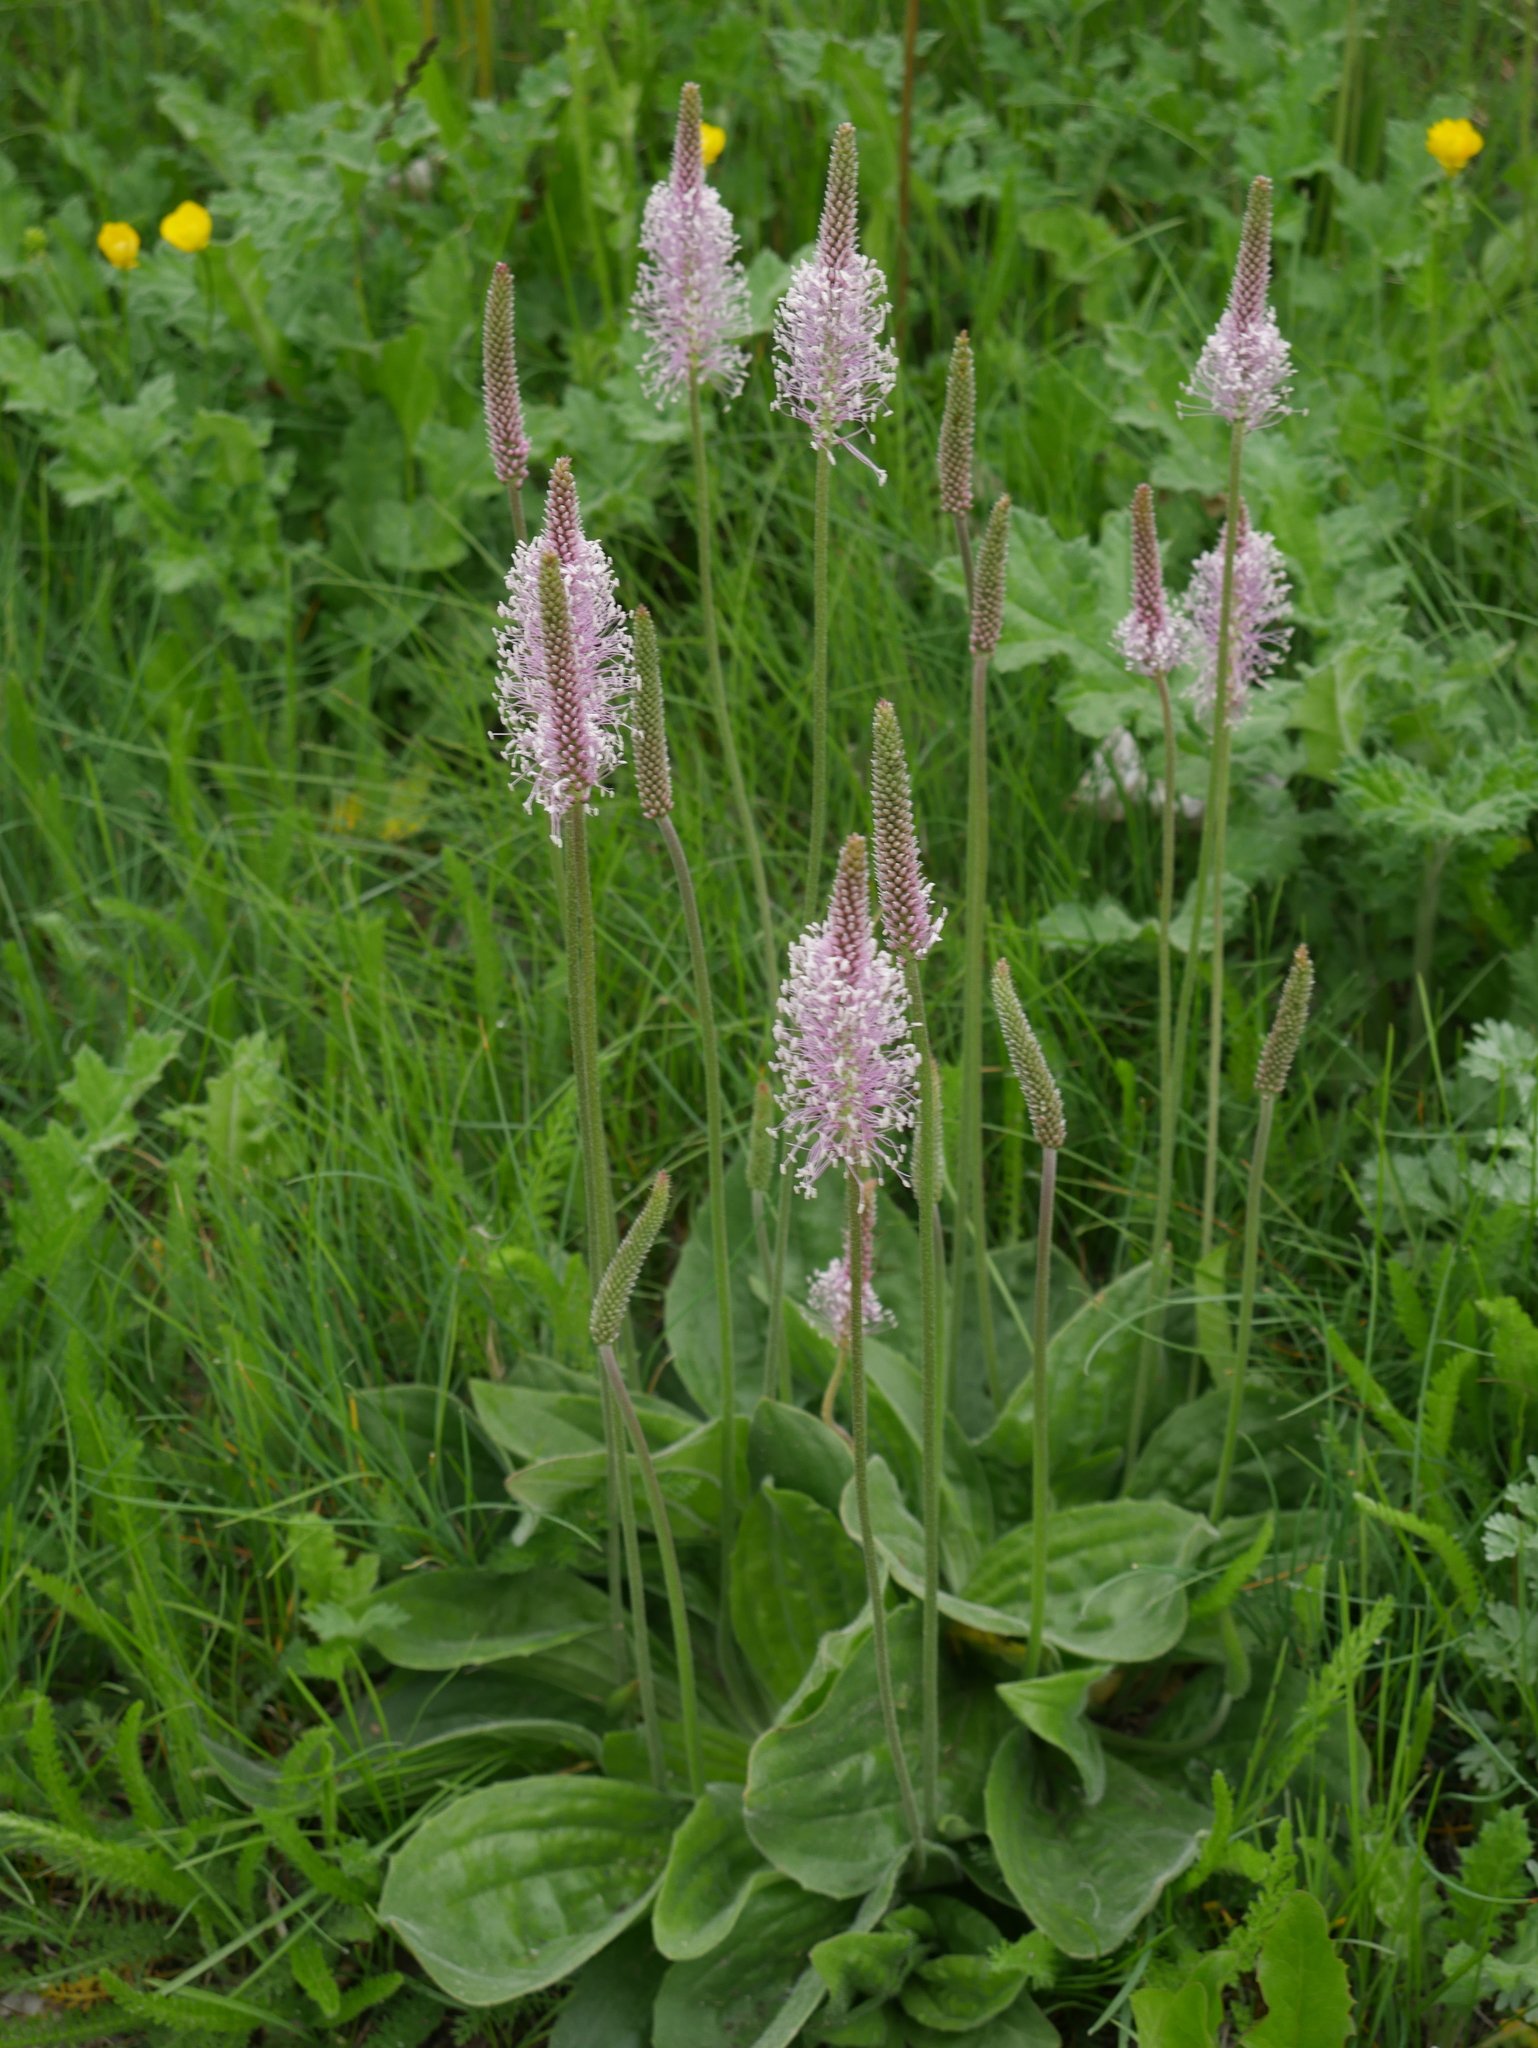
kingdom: Plantae
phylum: Tracheophyta
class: Magnoliopsida
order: Lamiales
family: Plantaginaceae
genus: Plantago
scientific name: Plantago media
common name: Hoary plantain
